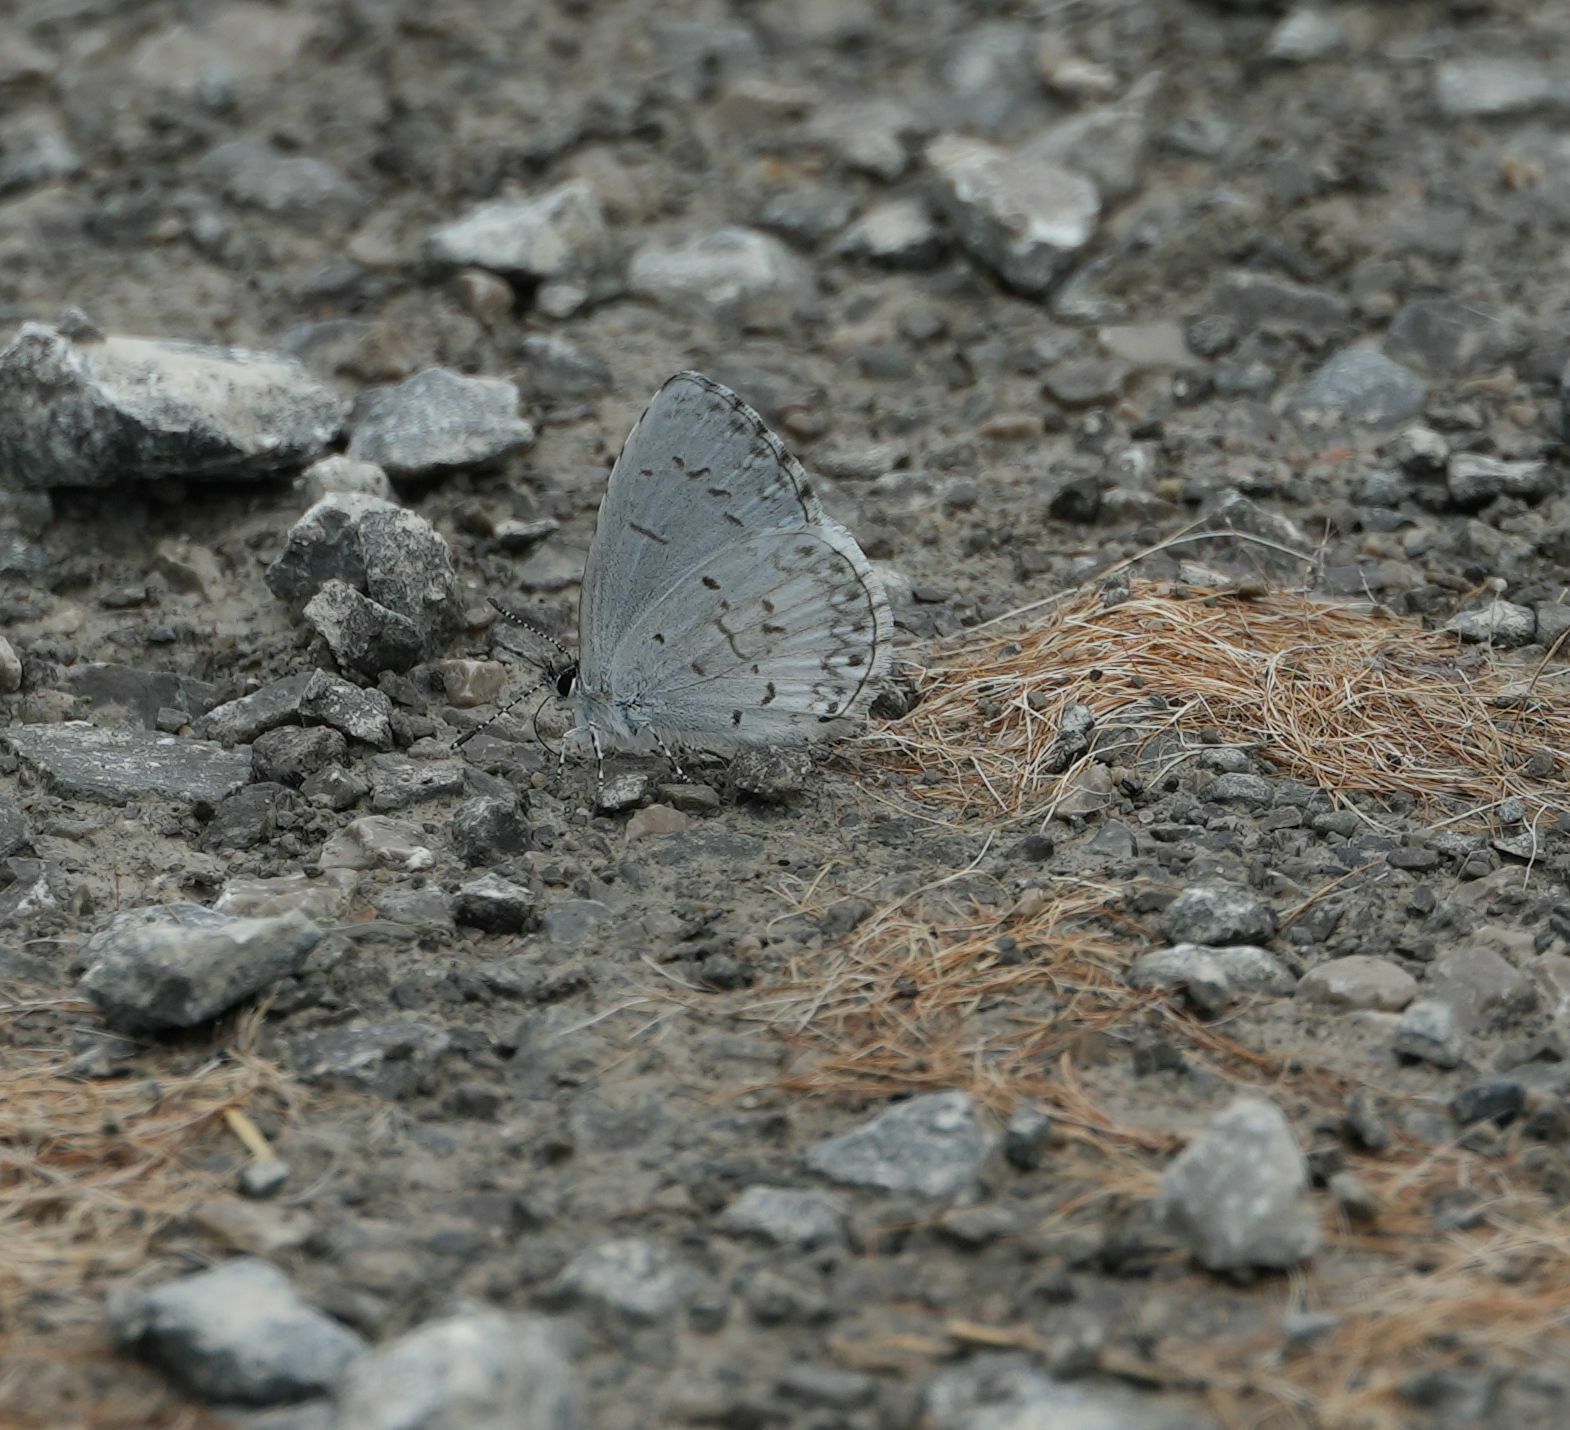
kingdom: Animalia
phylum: Arthropoda
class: Insecta
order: Lepidoptera
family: Lycaenidae
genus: Celastrina
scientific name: Celastrina lucia
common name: Lucia azure
